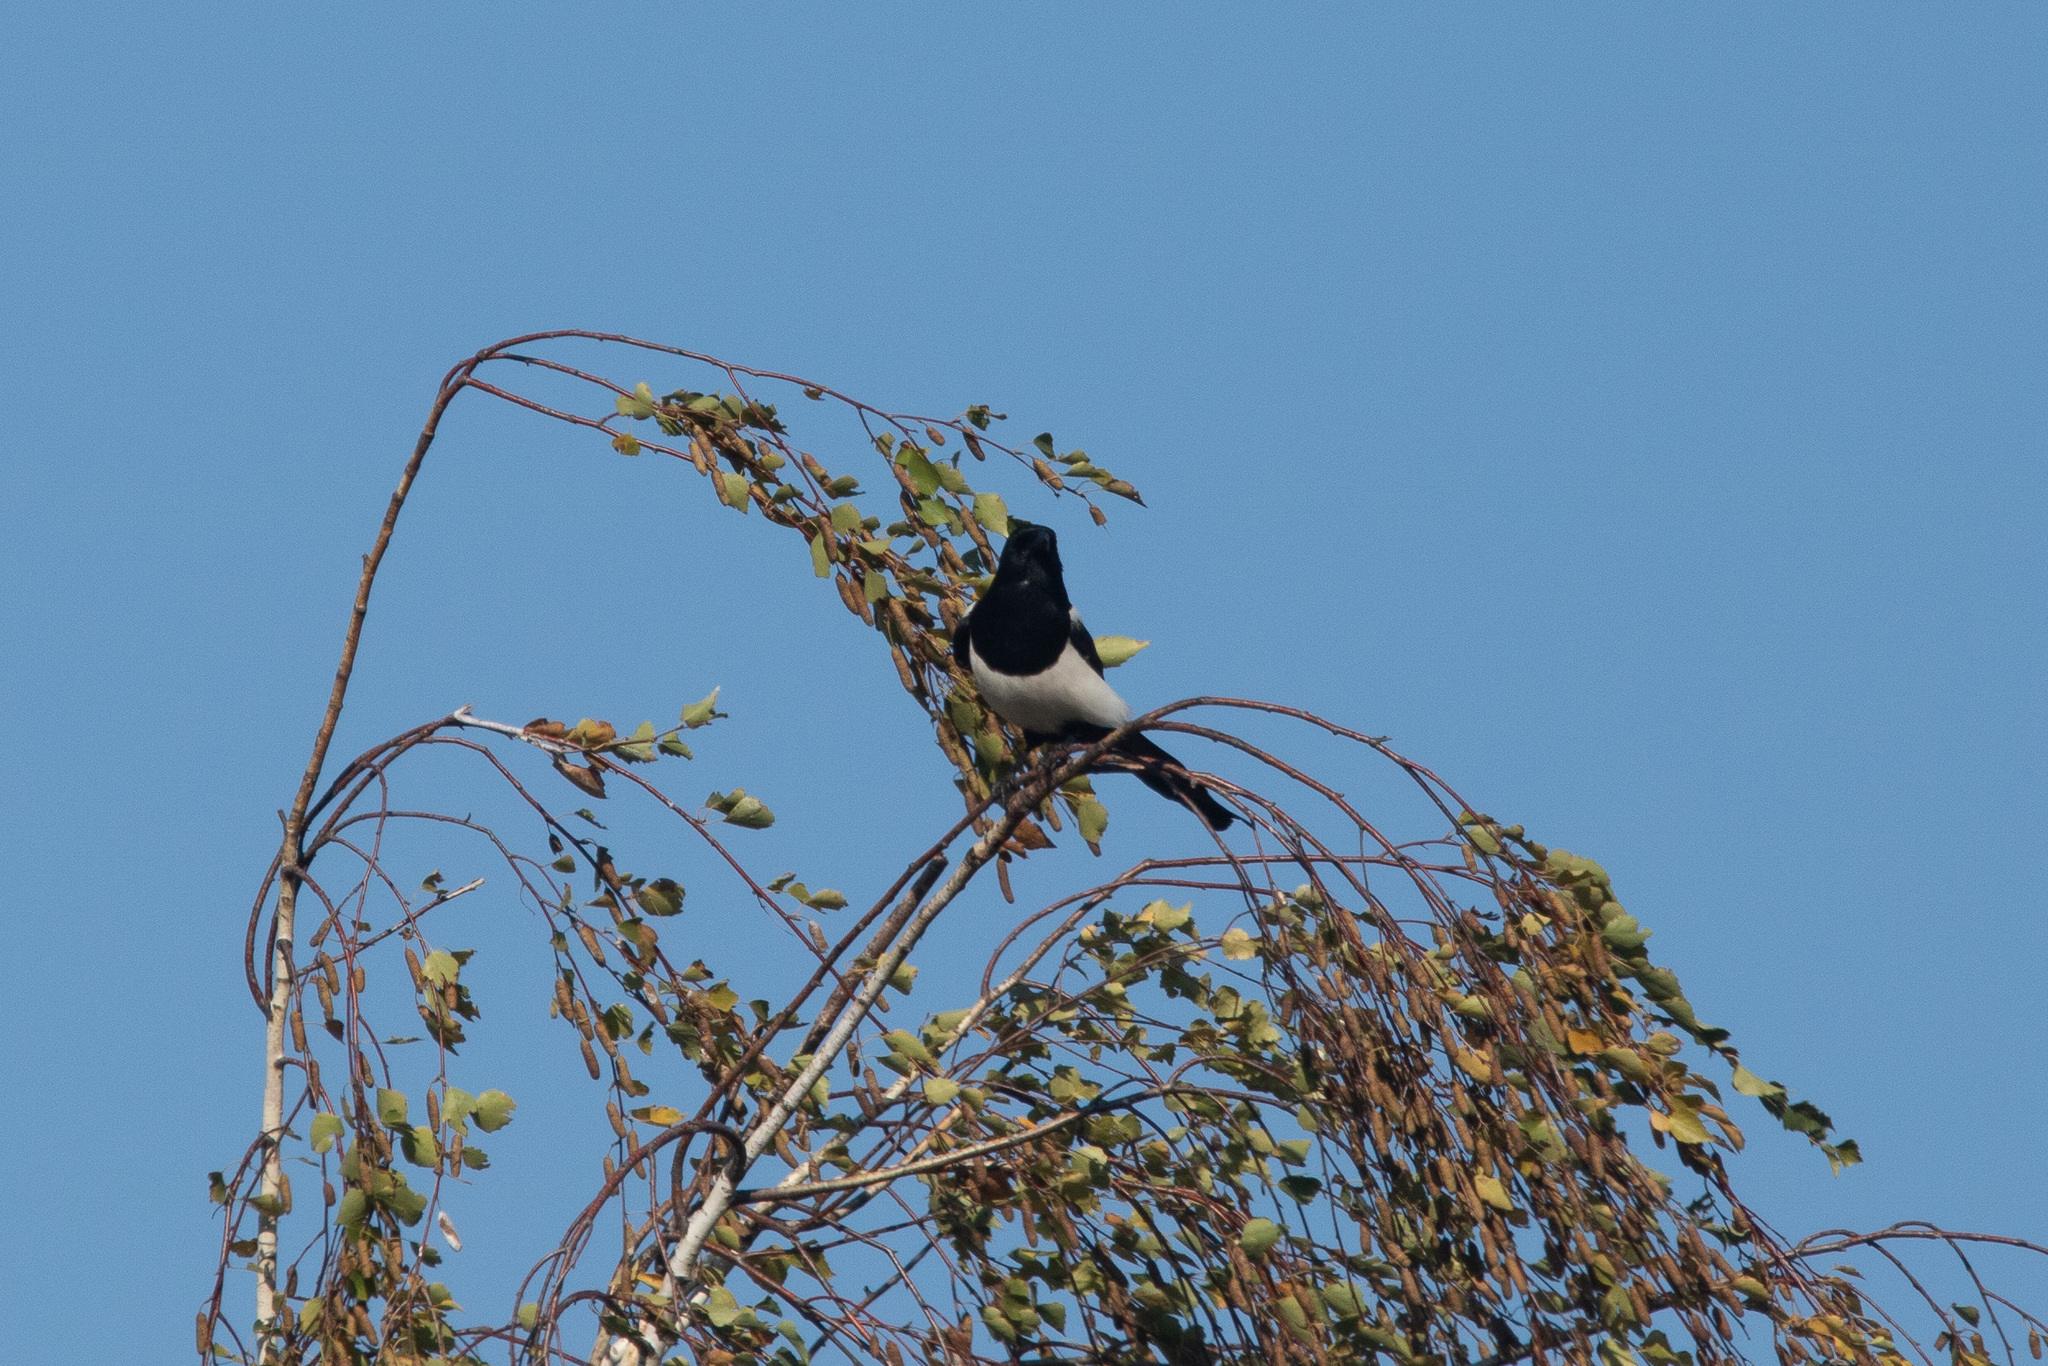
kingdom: Animalia
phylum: Chordata
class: Aves
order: Passeriformes
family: Corvidae
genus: Pica
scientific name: Pica pica
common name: Eurasian magpie
